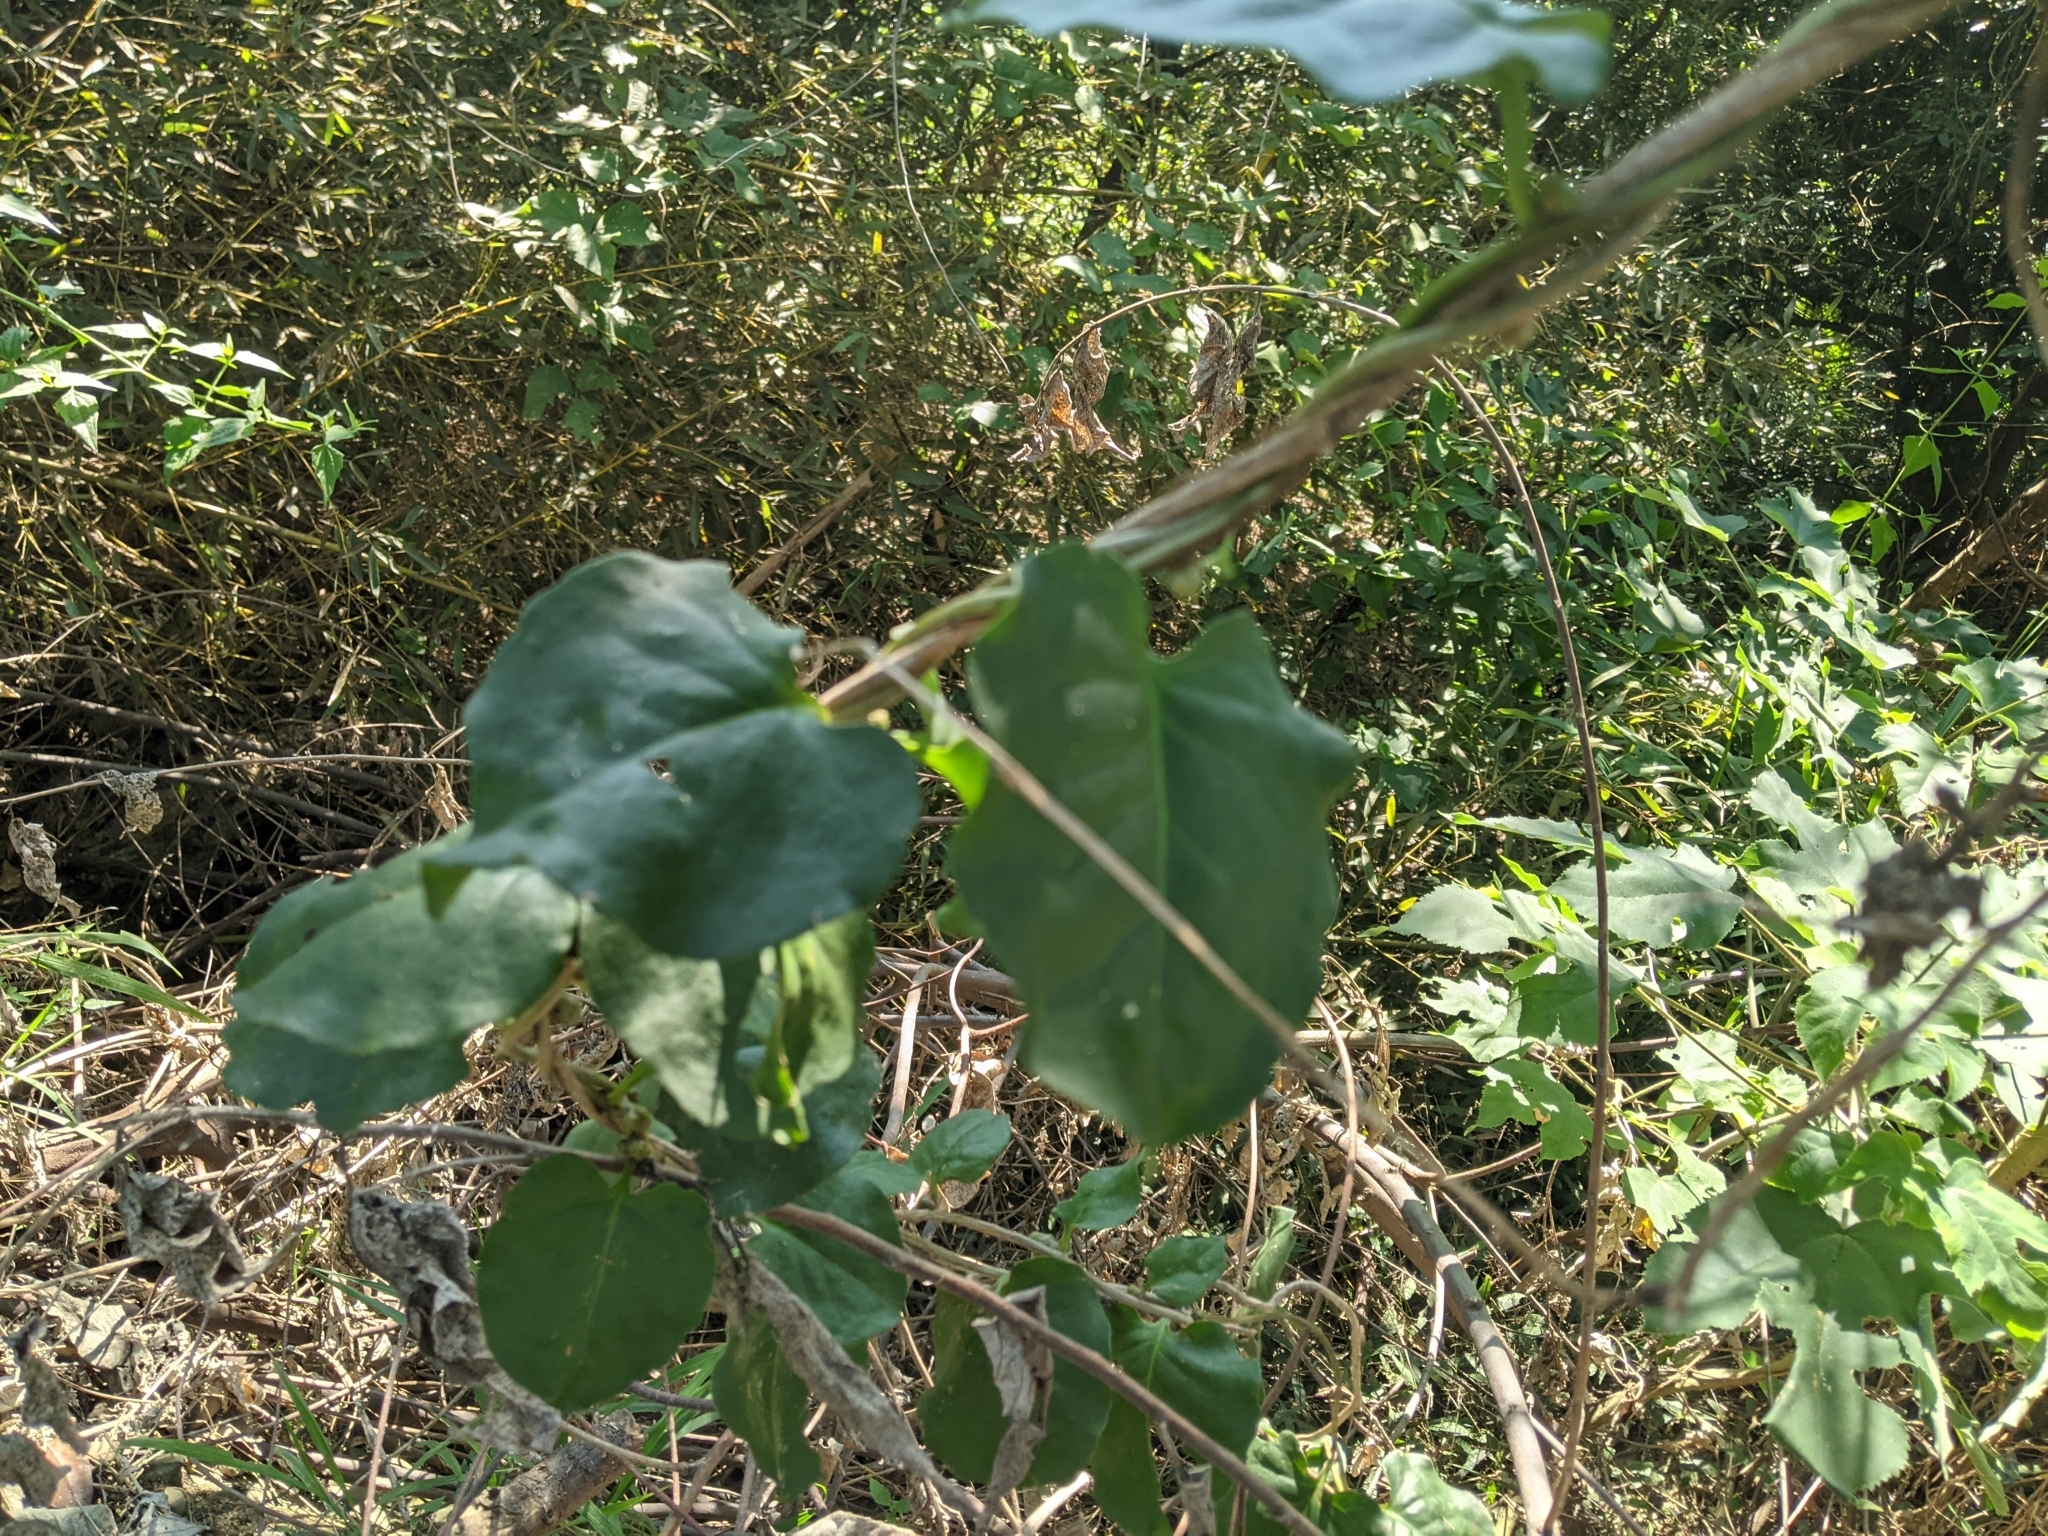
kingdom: Plantae
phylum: Tracheophyta
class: Magnoliopsida
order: Caryophyllales
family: Basellaceae
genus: Anredera
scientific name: Anredera cordifolia
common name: Heartleaf madeiravine
